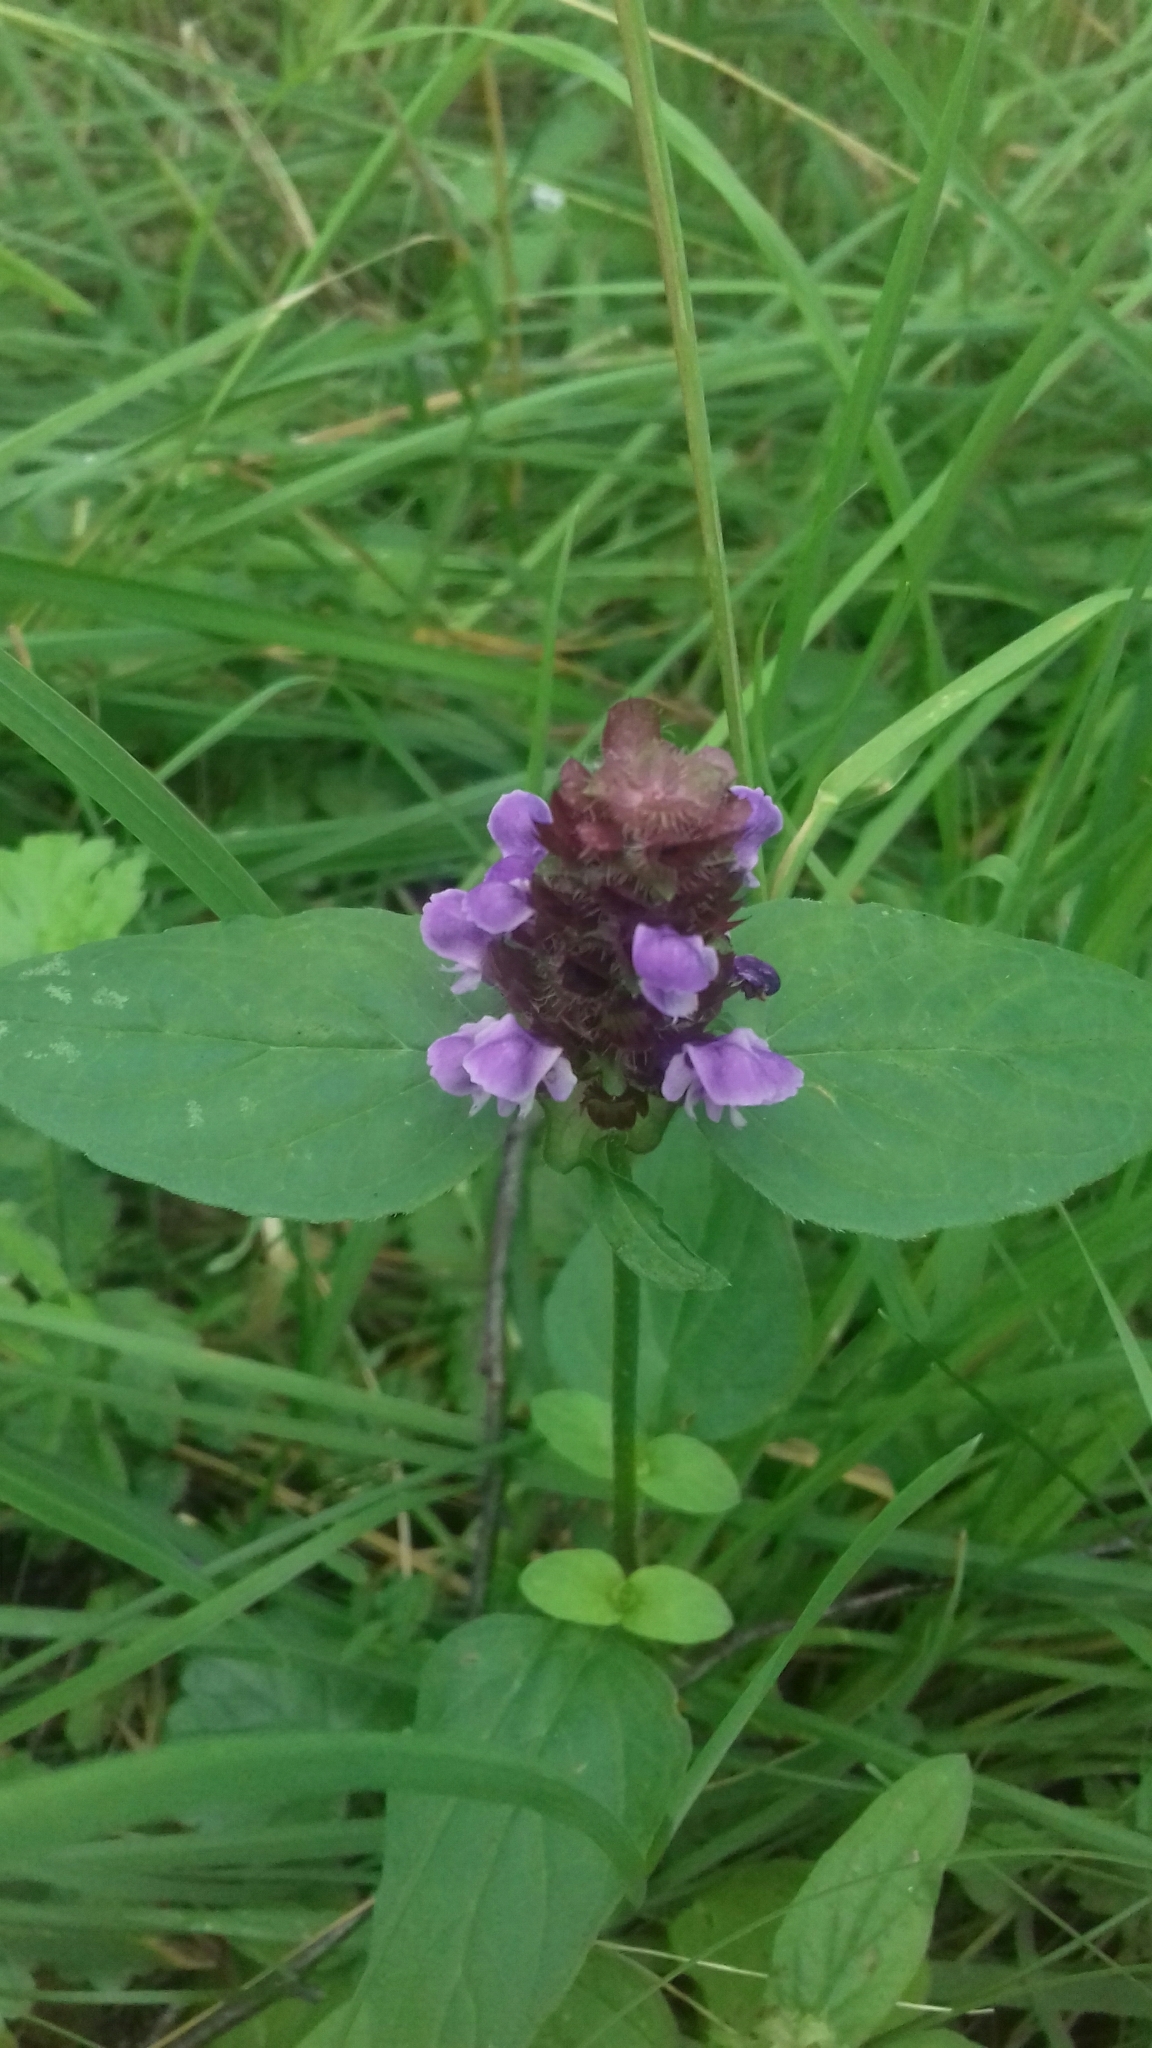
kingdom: Plantae
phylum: Tracheophyta
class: Magnoliopsida
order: Lamiales
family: Lamiaceae
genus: Prunella
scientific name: Prunella vulgaris
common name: Heal-all
